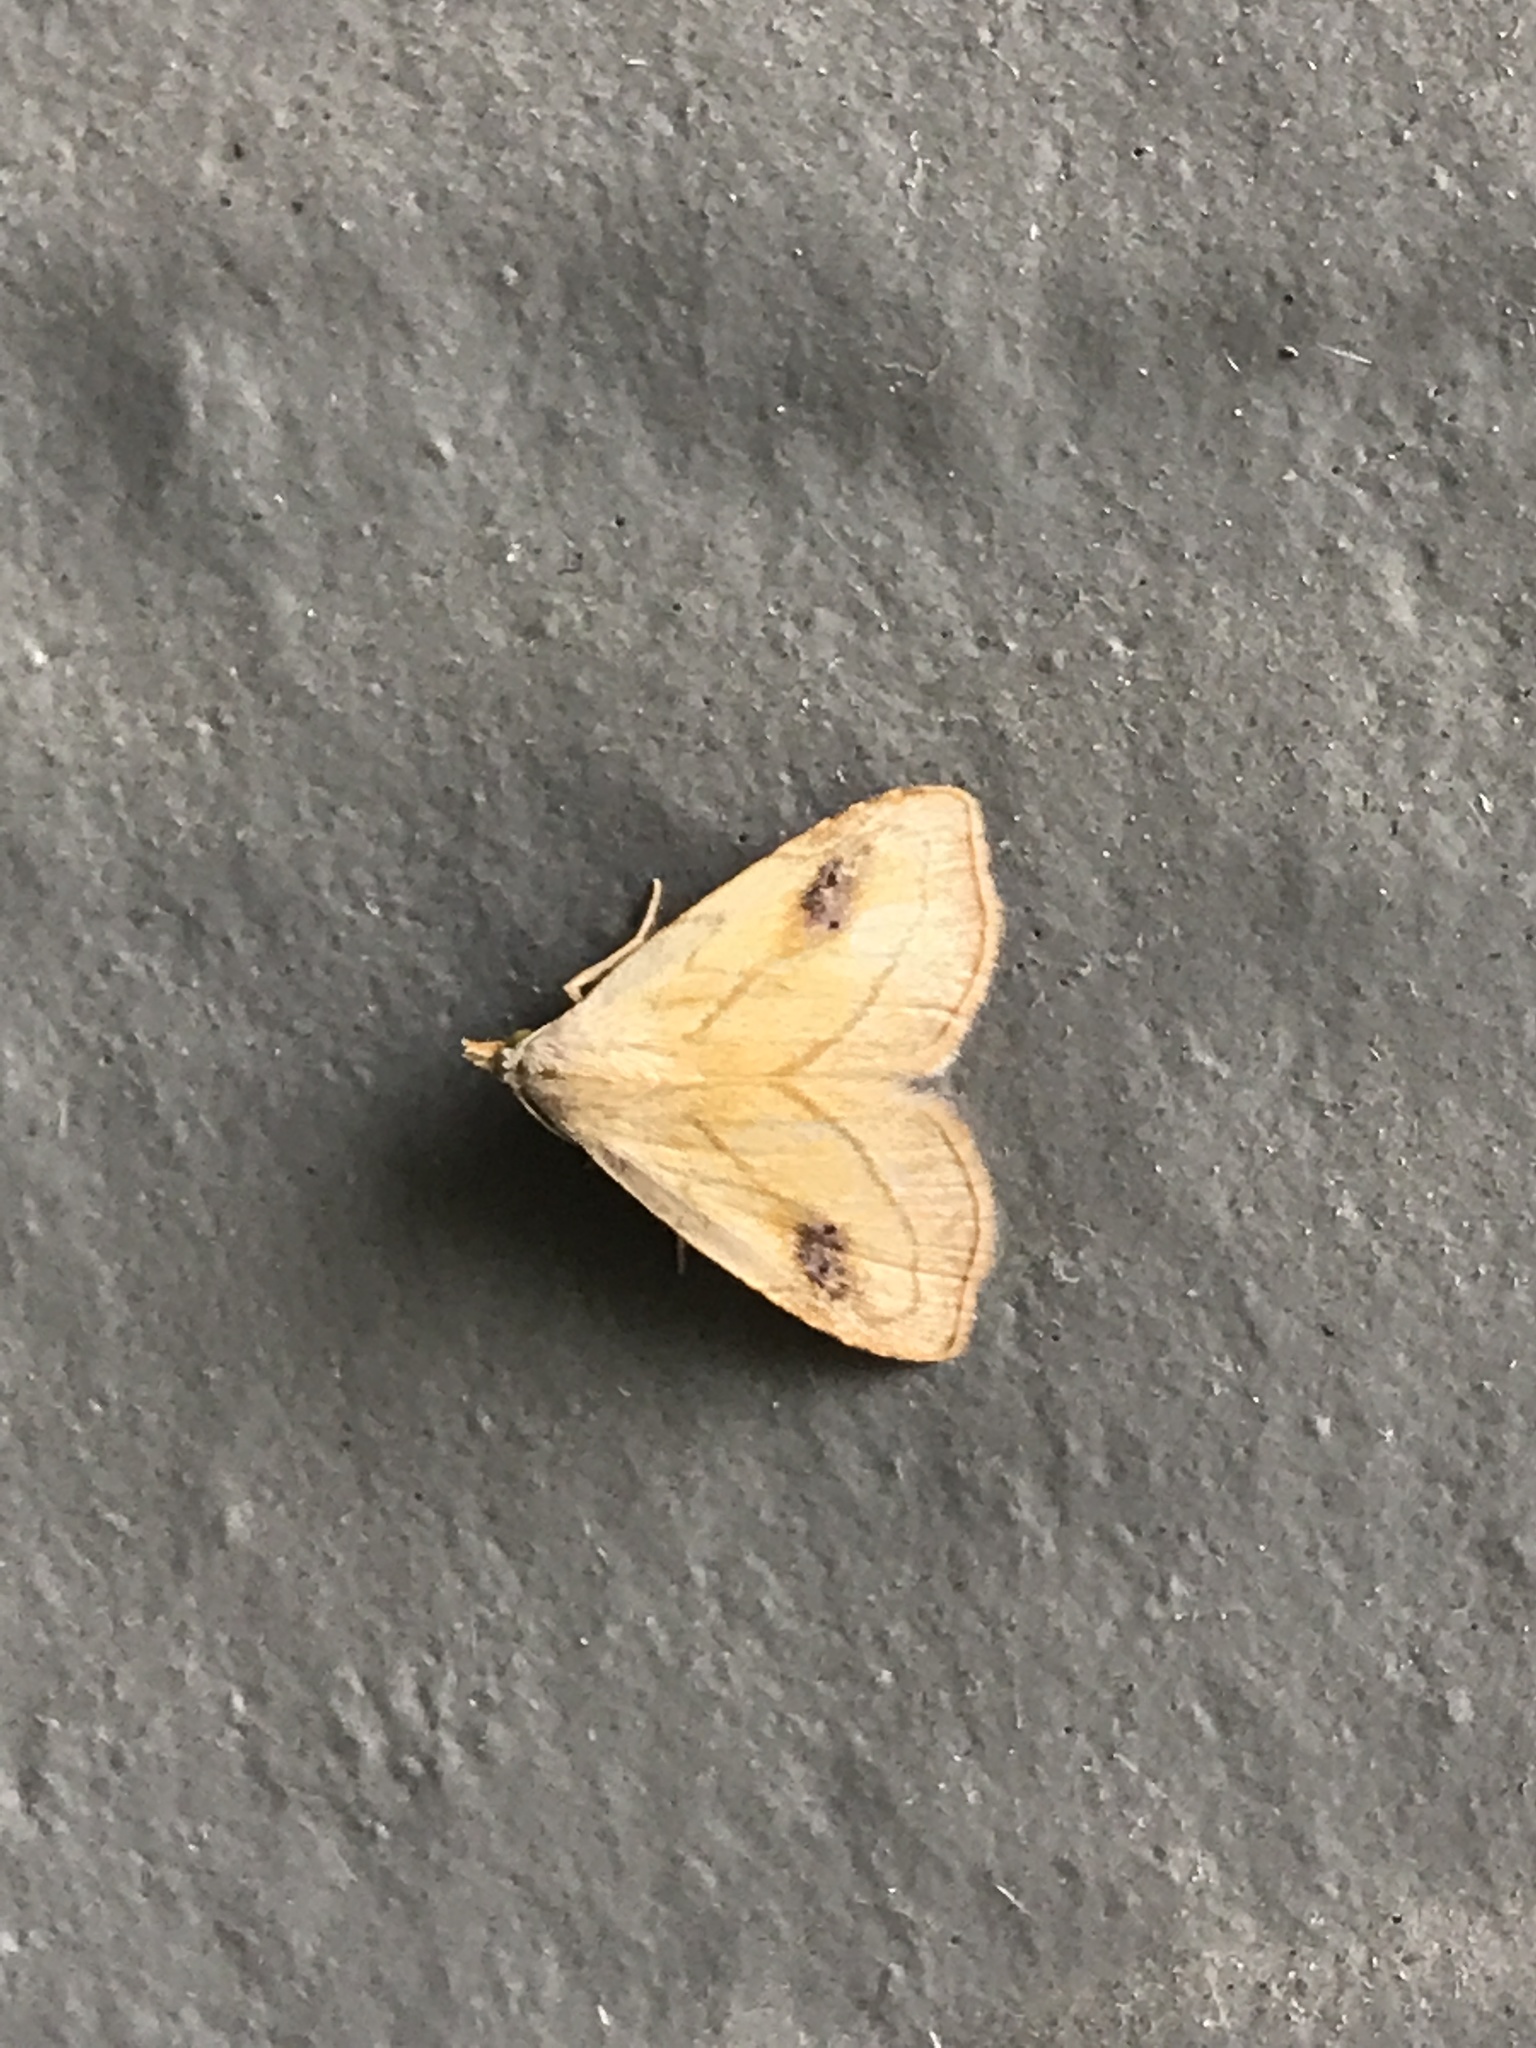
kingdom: Animalia
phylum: Arthropoda
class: Insecta
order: Lepidoptera
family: Erebidae
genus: Rivula
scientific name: Rivula propinqualis
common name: Spotted grass moth
